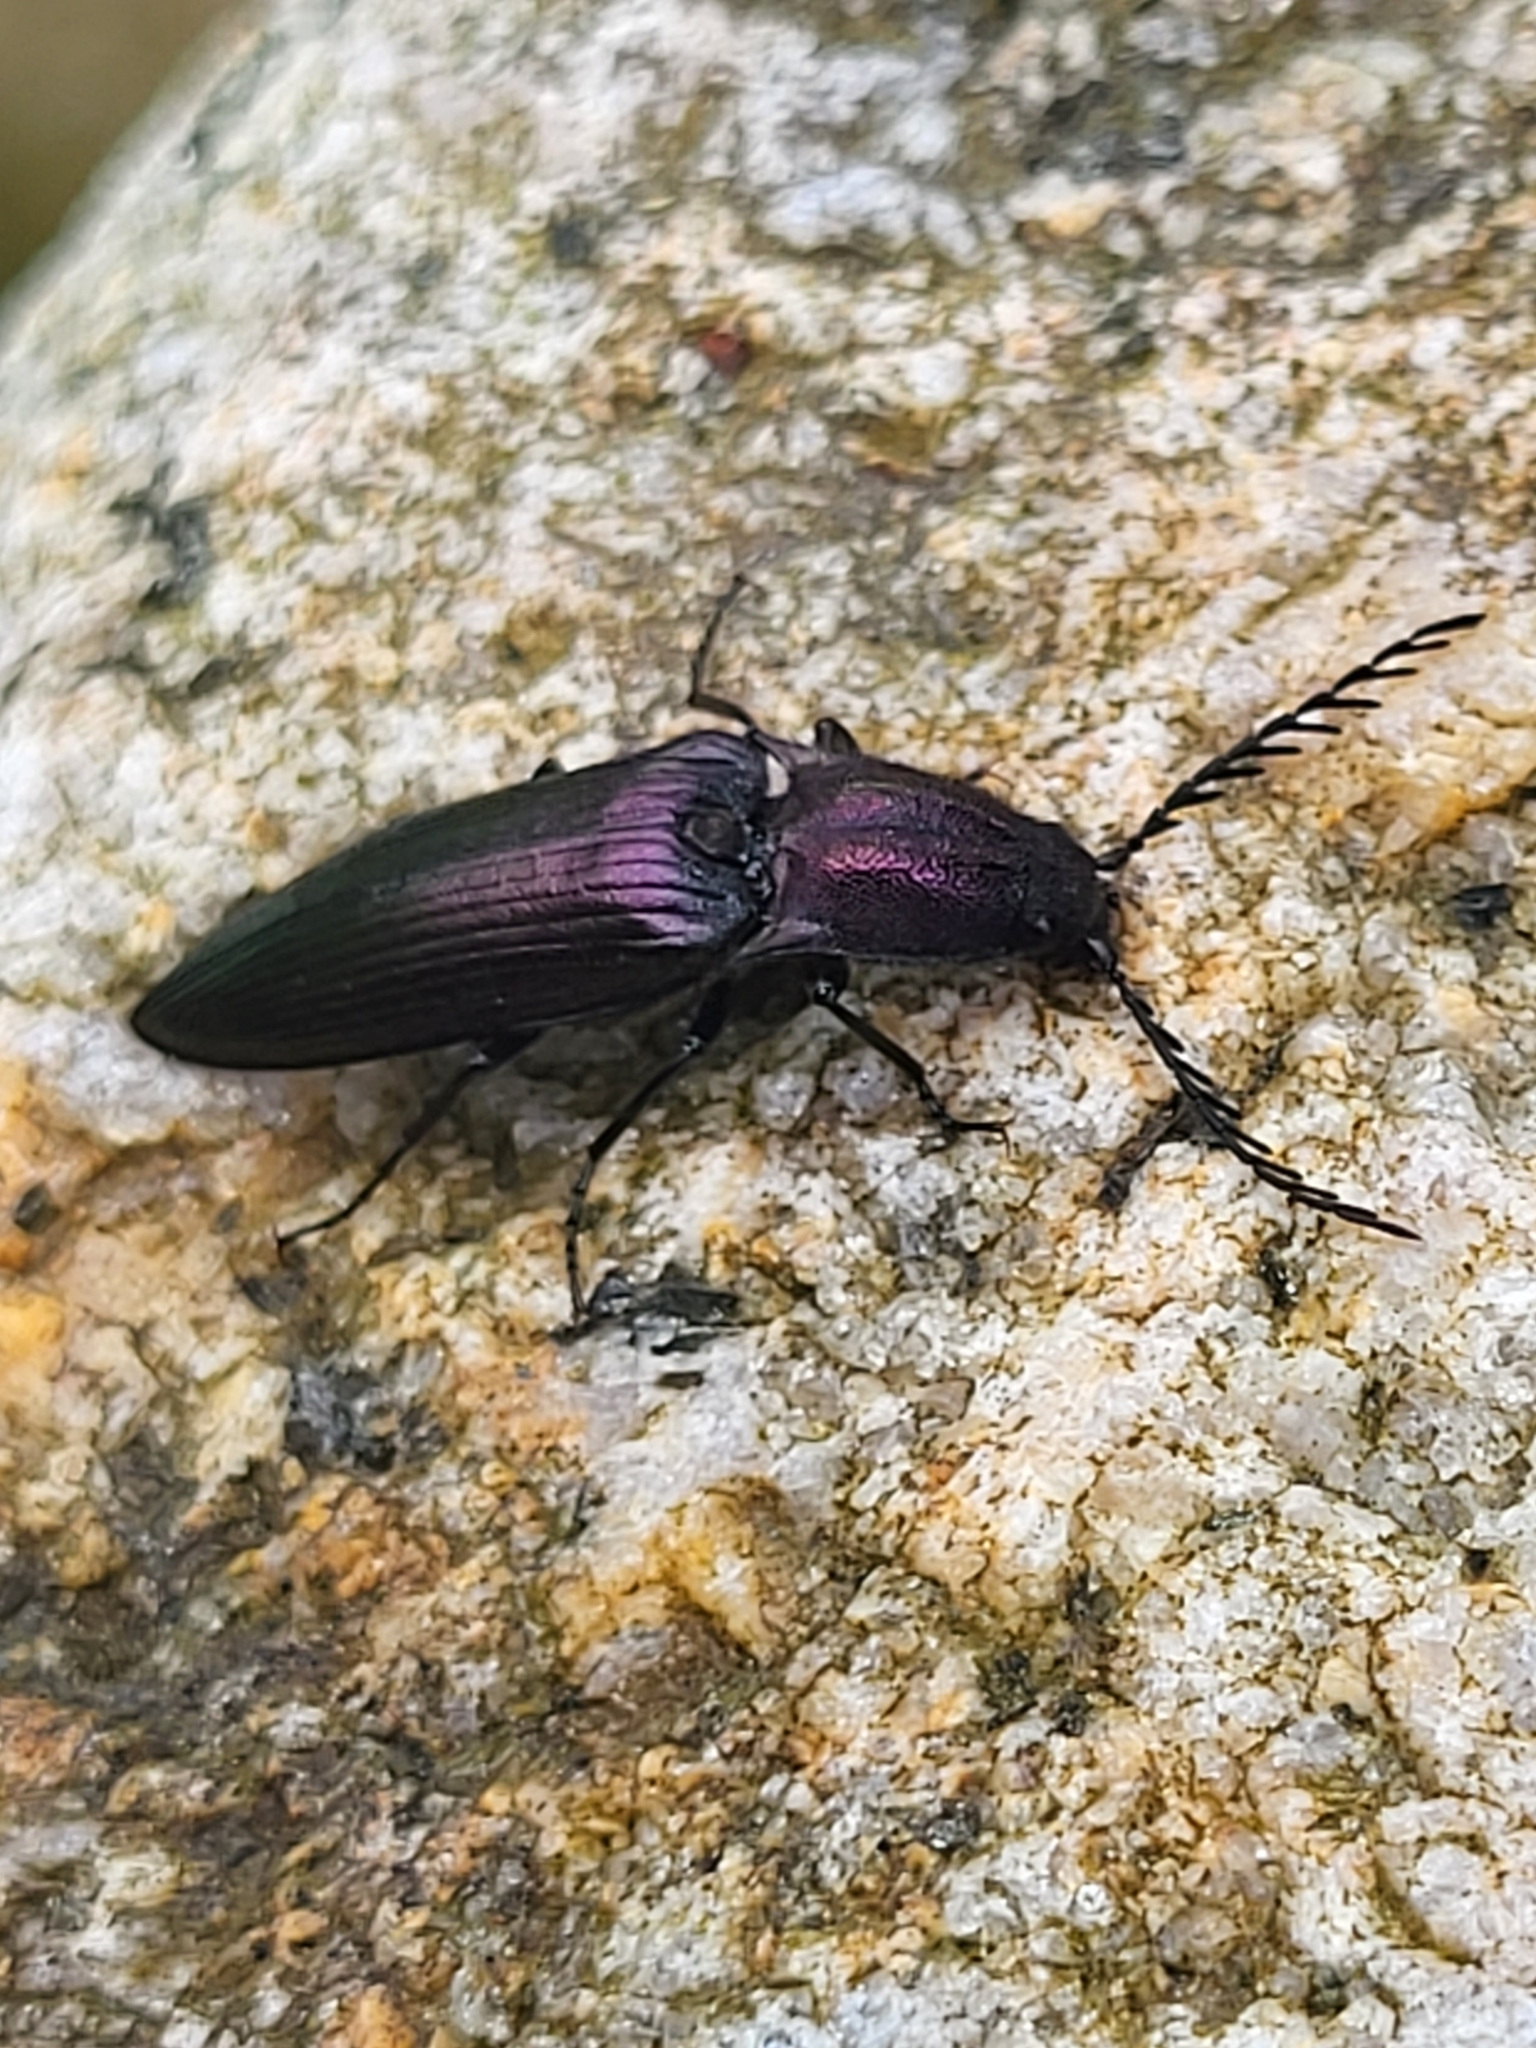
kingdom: Animalia
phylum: Arthropoda
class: Insecta
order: Coleoptera
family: Elateridae
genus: Ctenicera
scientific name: Ctenicera cuprea
